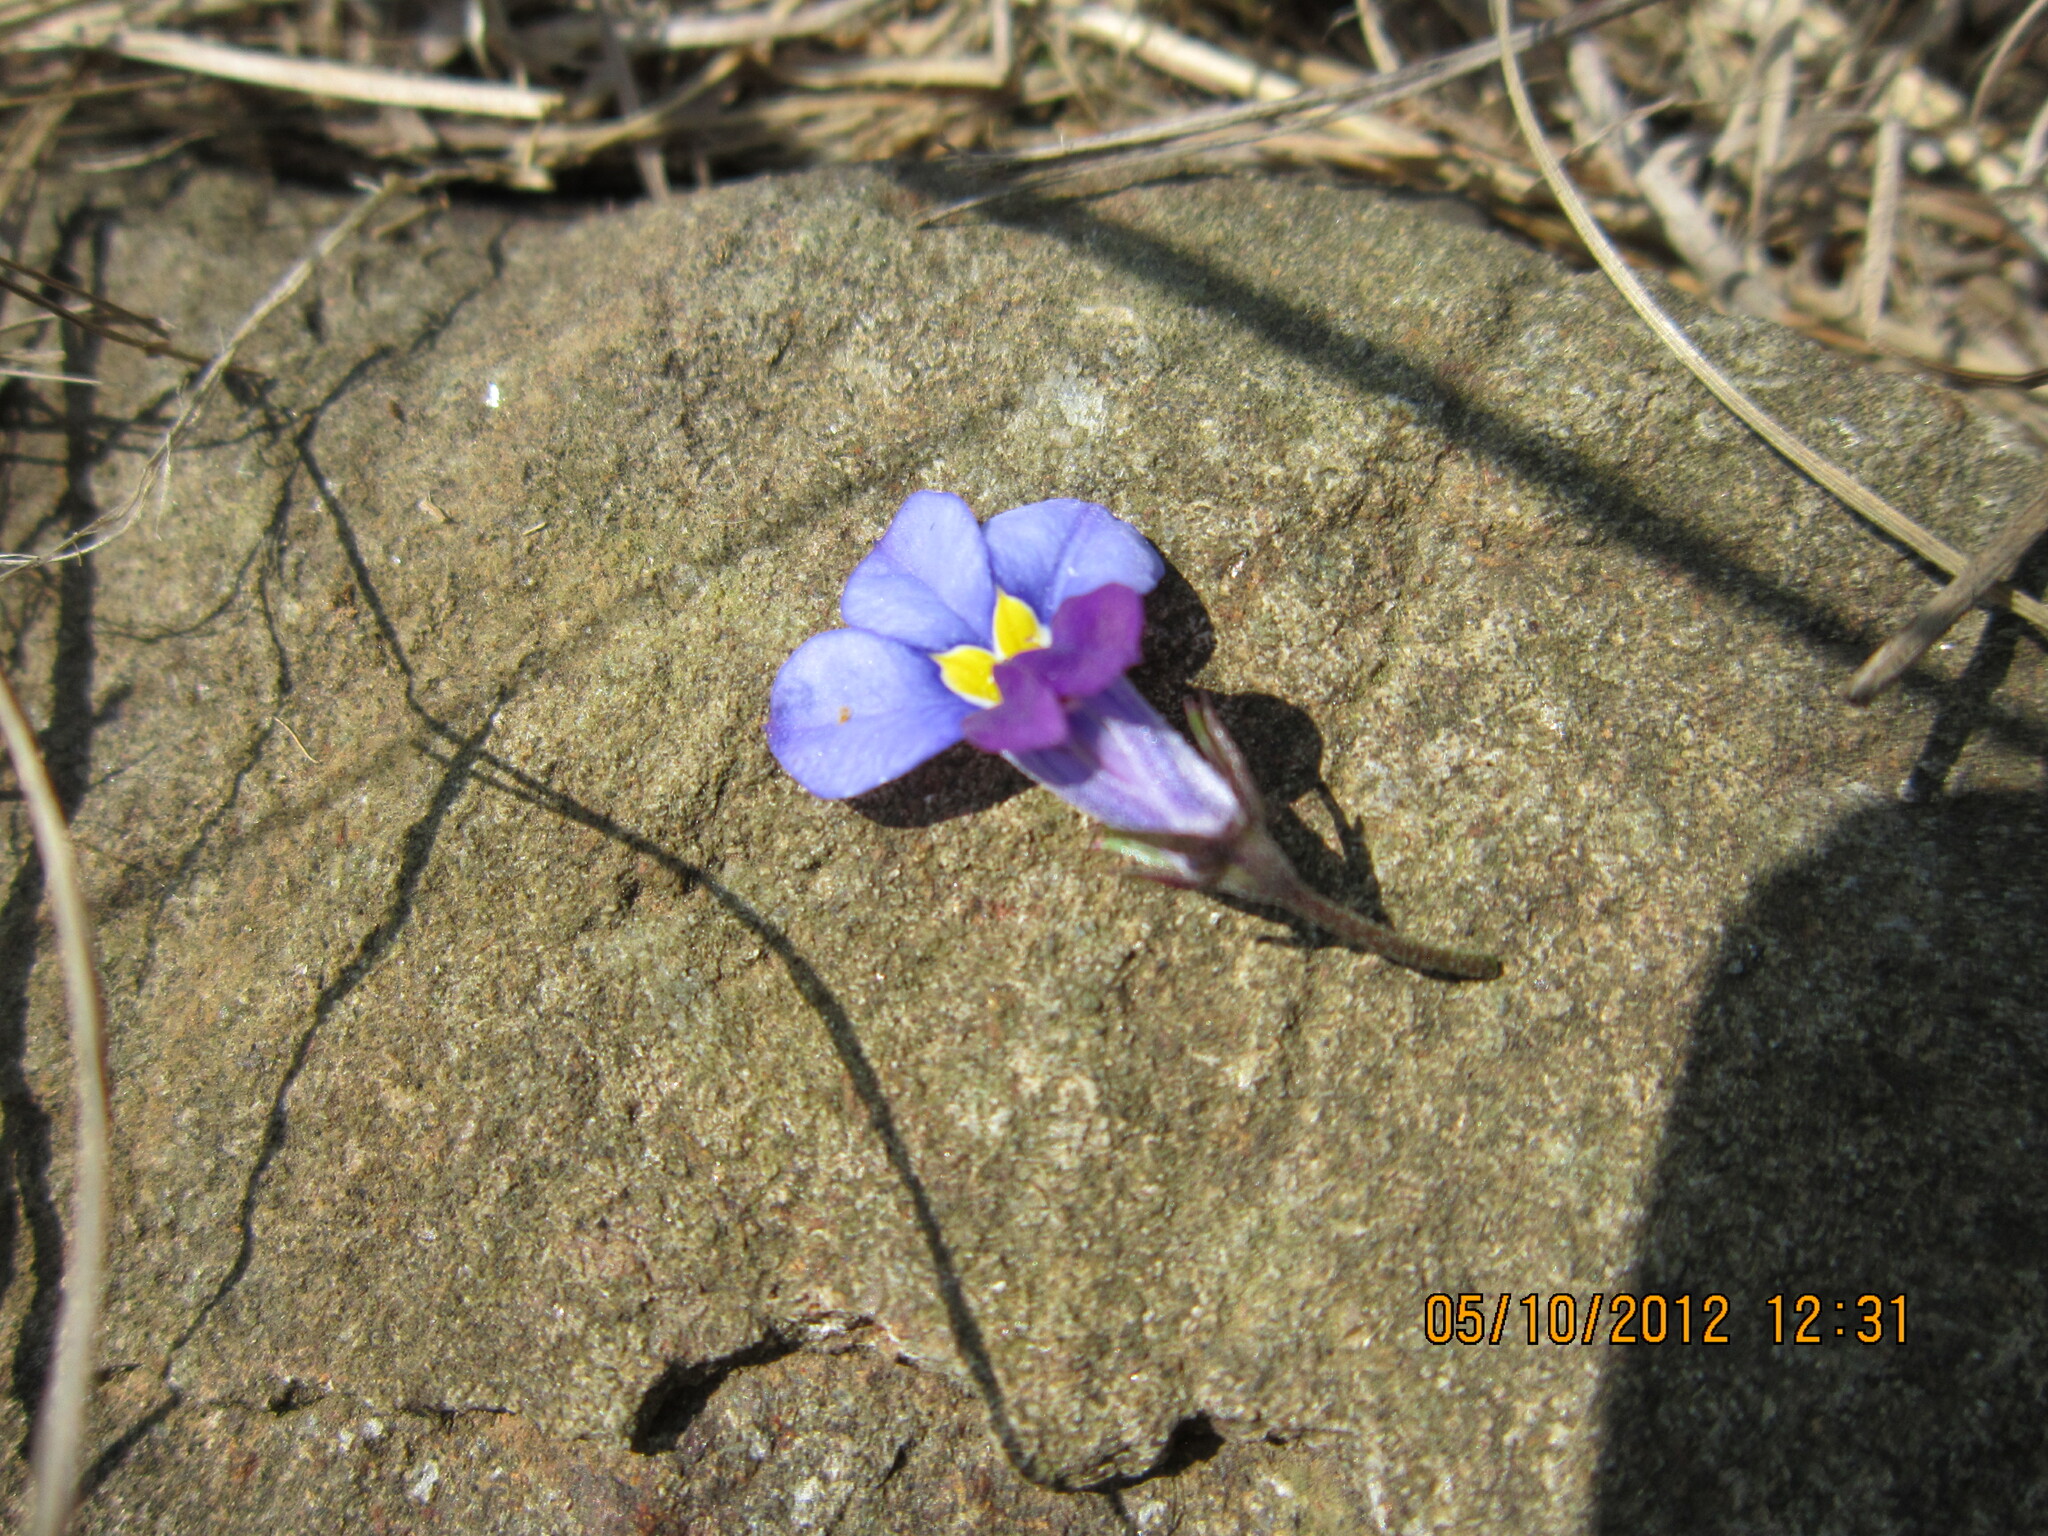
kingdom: Plantae
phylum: Tracheophyta
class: Magnoliopsida
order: Asterales
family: Campanulaceae
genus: Monopsis
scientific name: Monopsis decipiens
